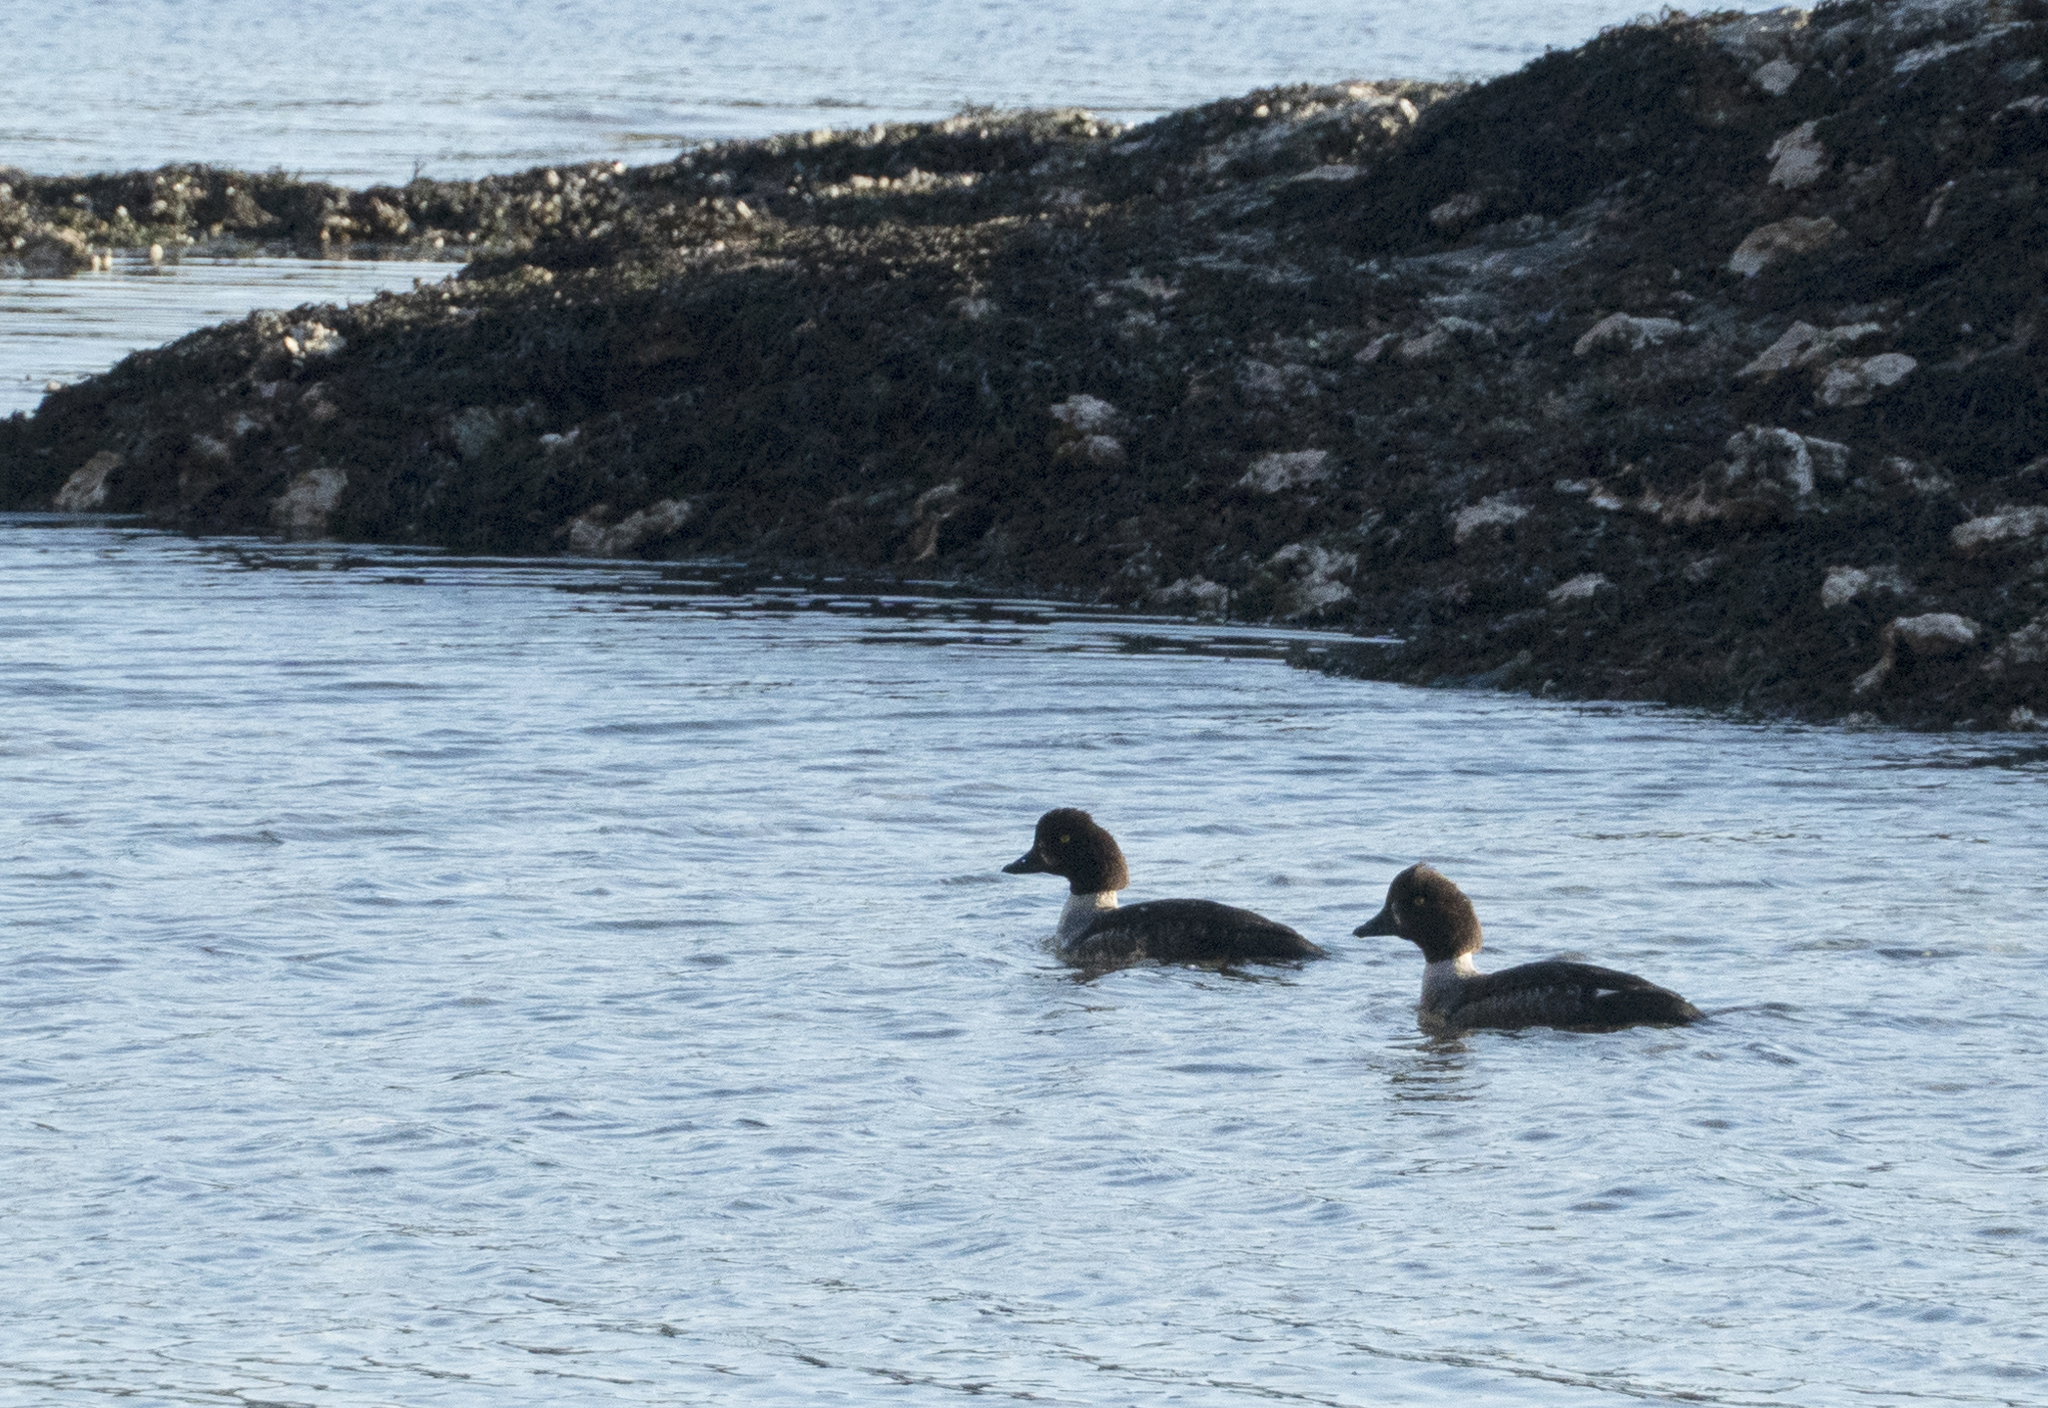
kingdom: Animalia
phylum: Chordata
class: Aves
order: Anseriformes
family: Anatidae
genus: Bucephala
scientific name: Bucephala islandica
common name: Barrow's goldeneye
